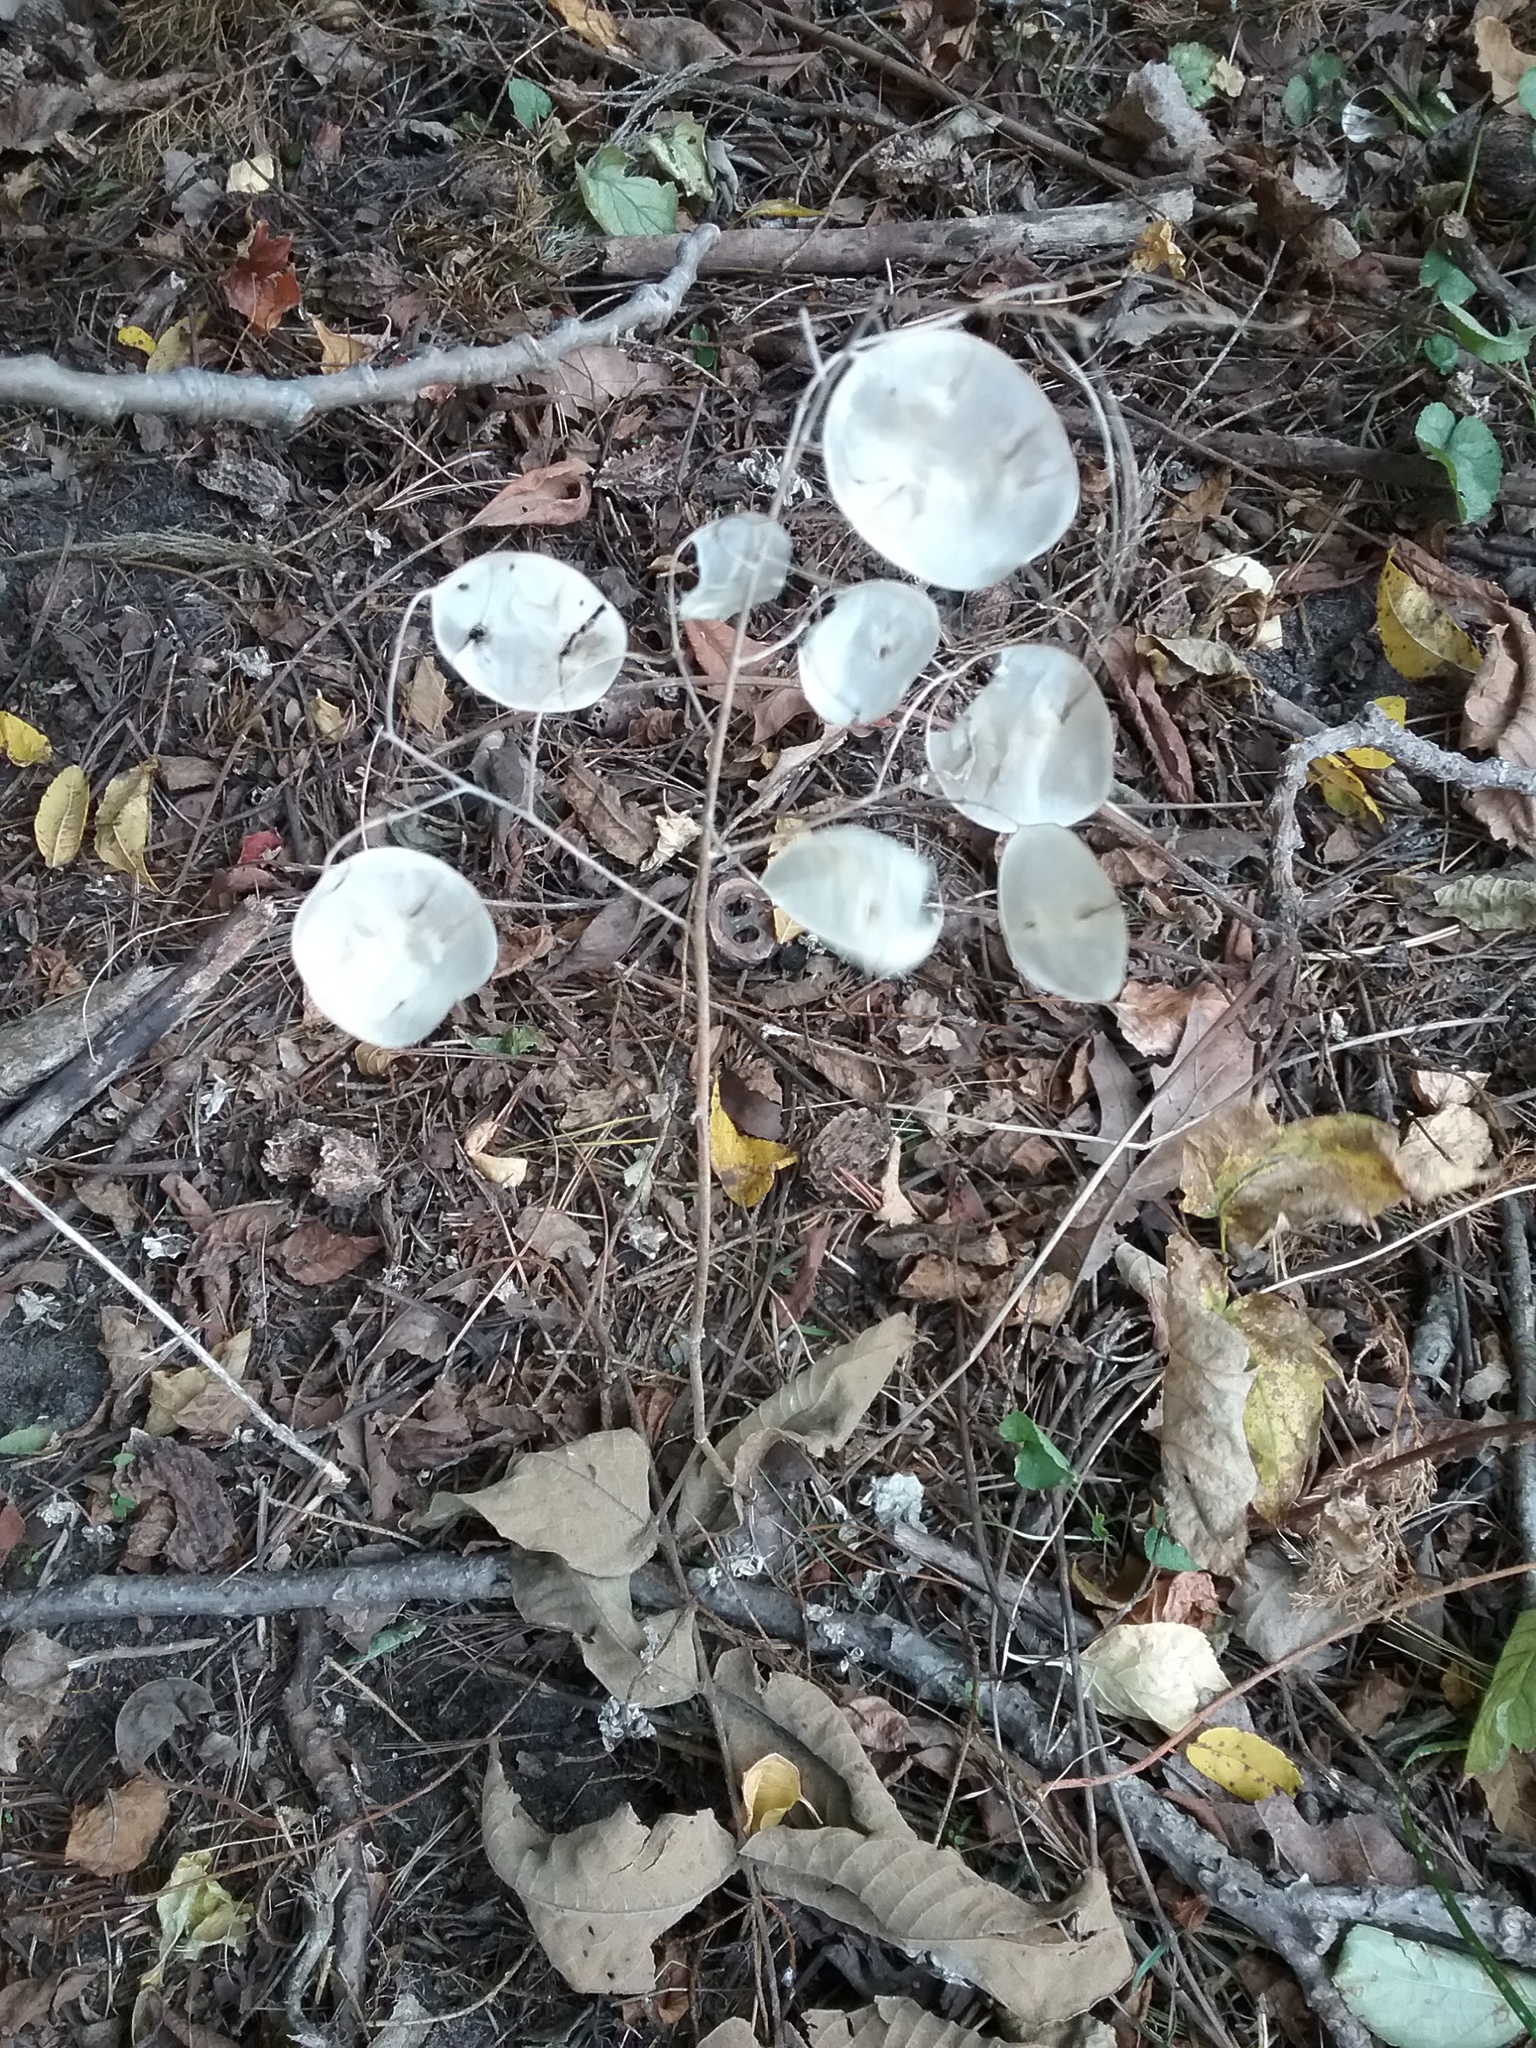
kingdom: Plantae
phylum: Tracheophyta
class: Magnoliopsida
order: Brassicales
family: Brassicaceae
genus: Lunaria
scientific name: Lunaria annua
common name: Honesty
